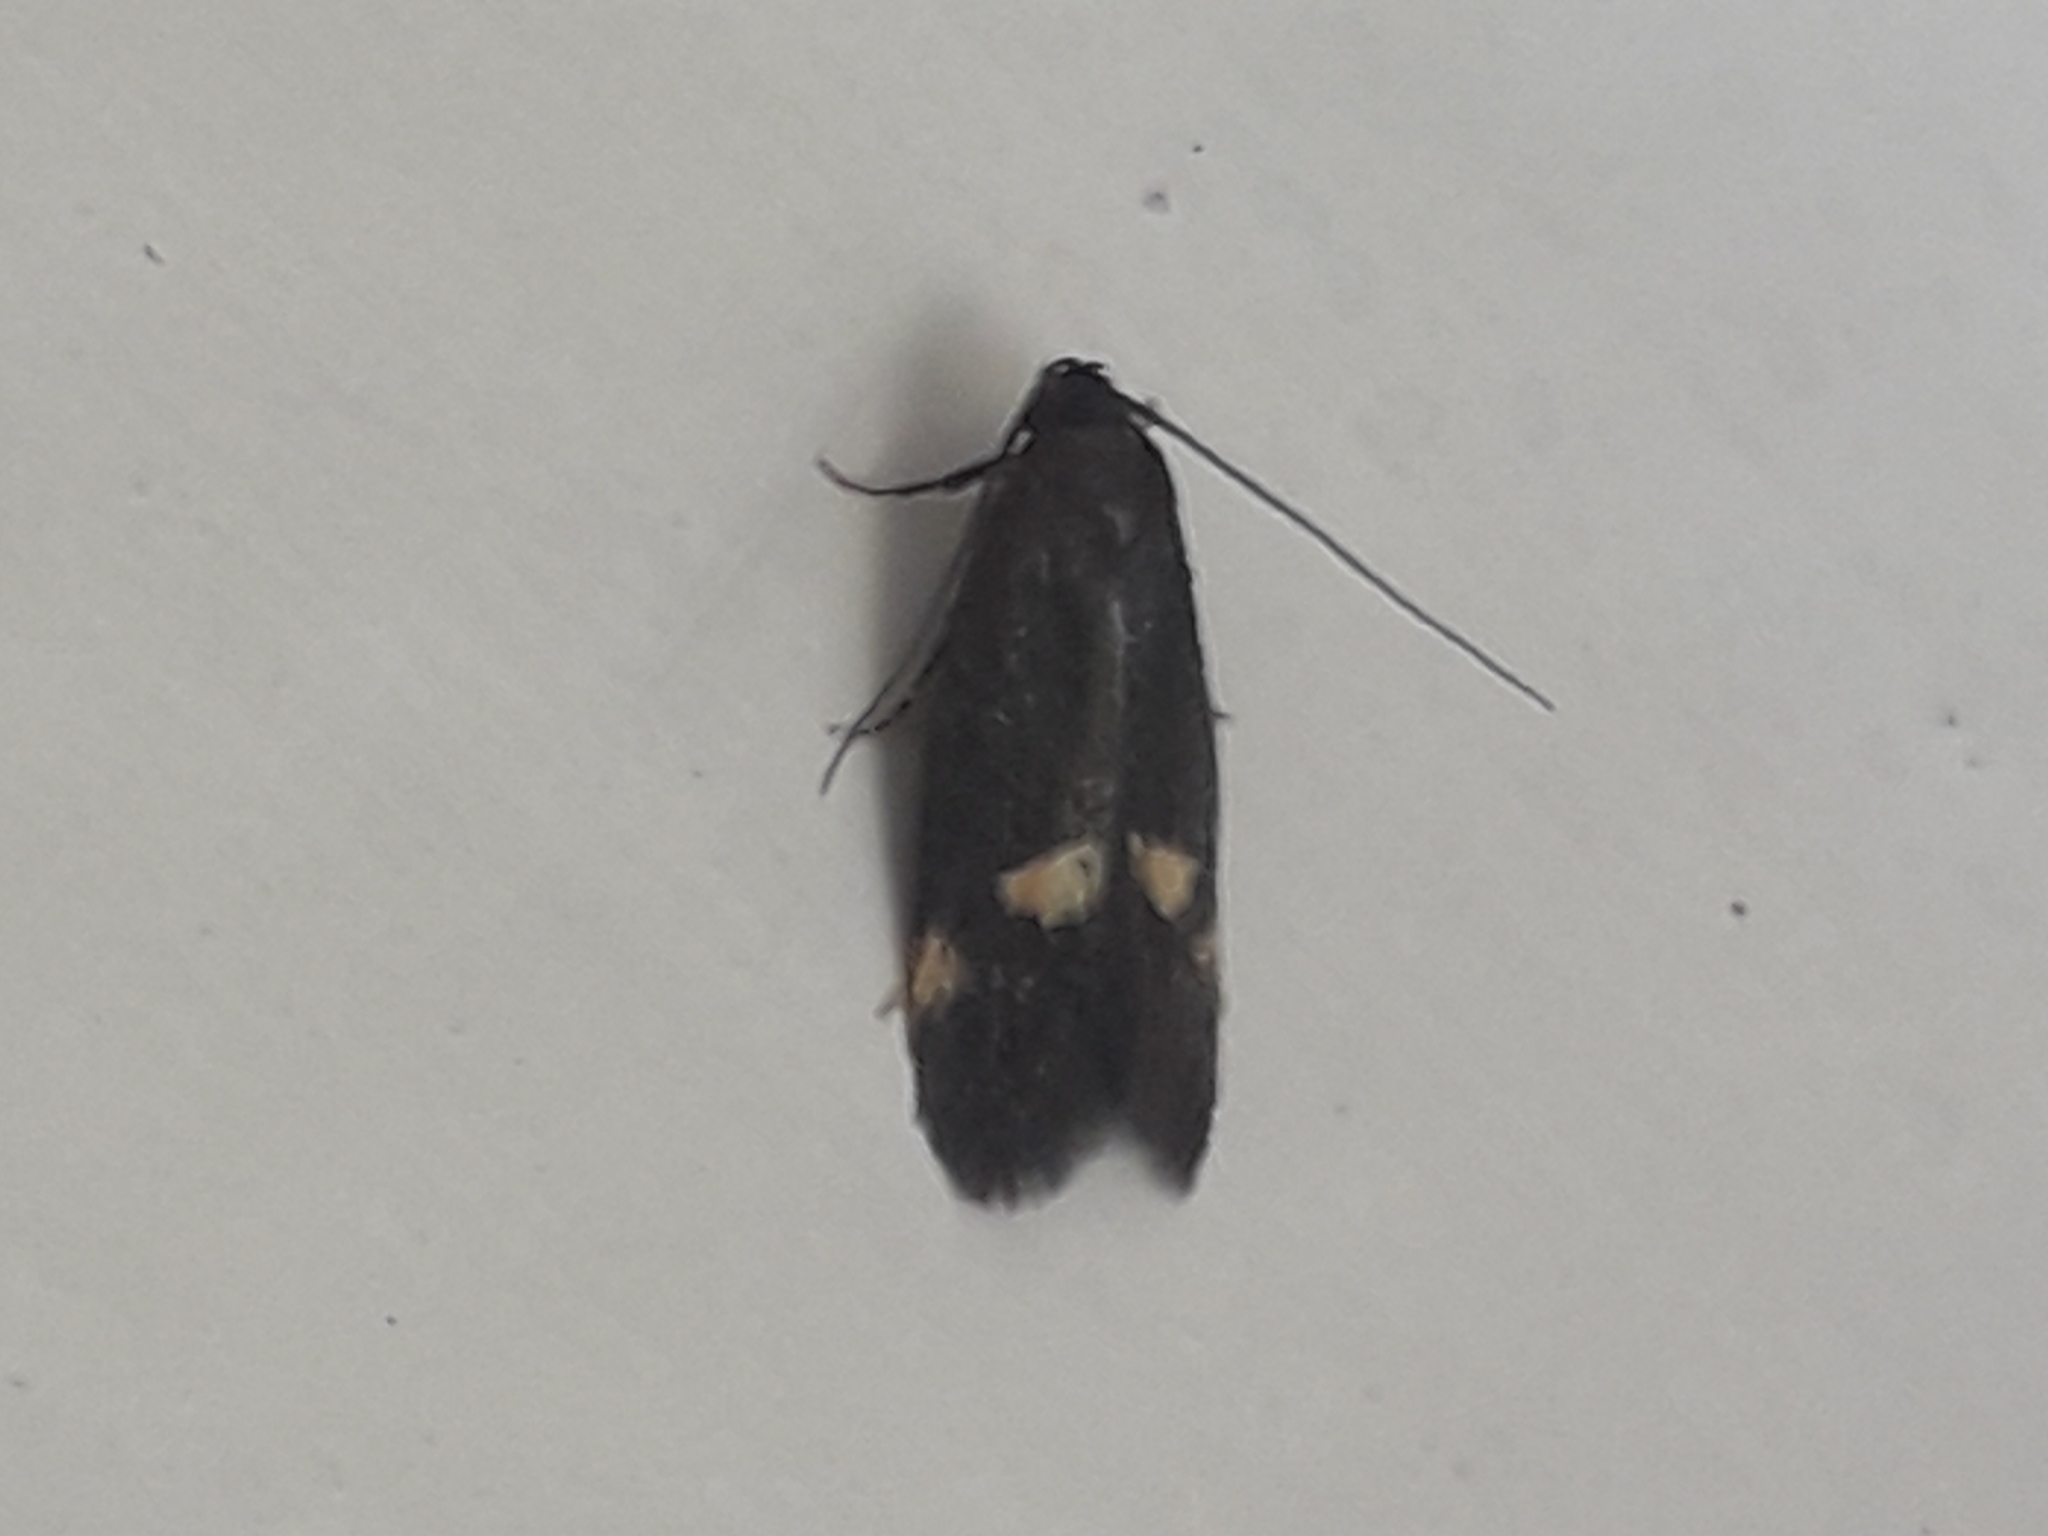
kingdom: Animalia
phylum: Arthropoda
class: Insecta
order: Lepidoptera
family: Oecophoridae
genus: Borkhausenia
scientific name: Borkhausenia minutella
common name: Thatch tubic
